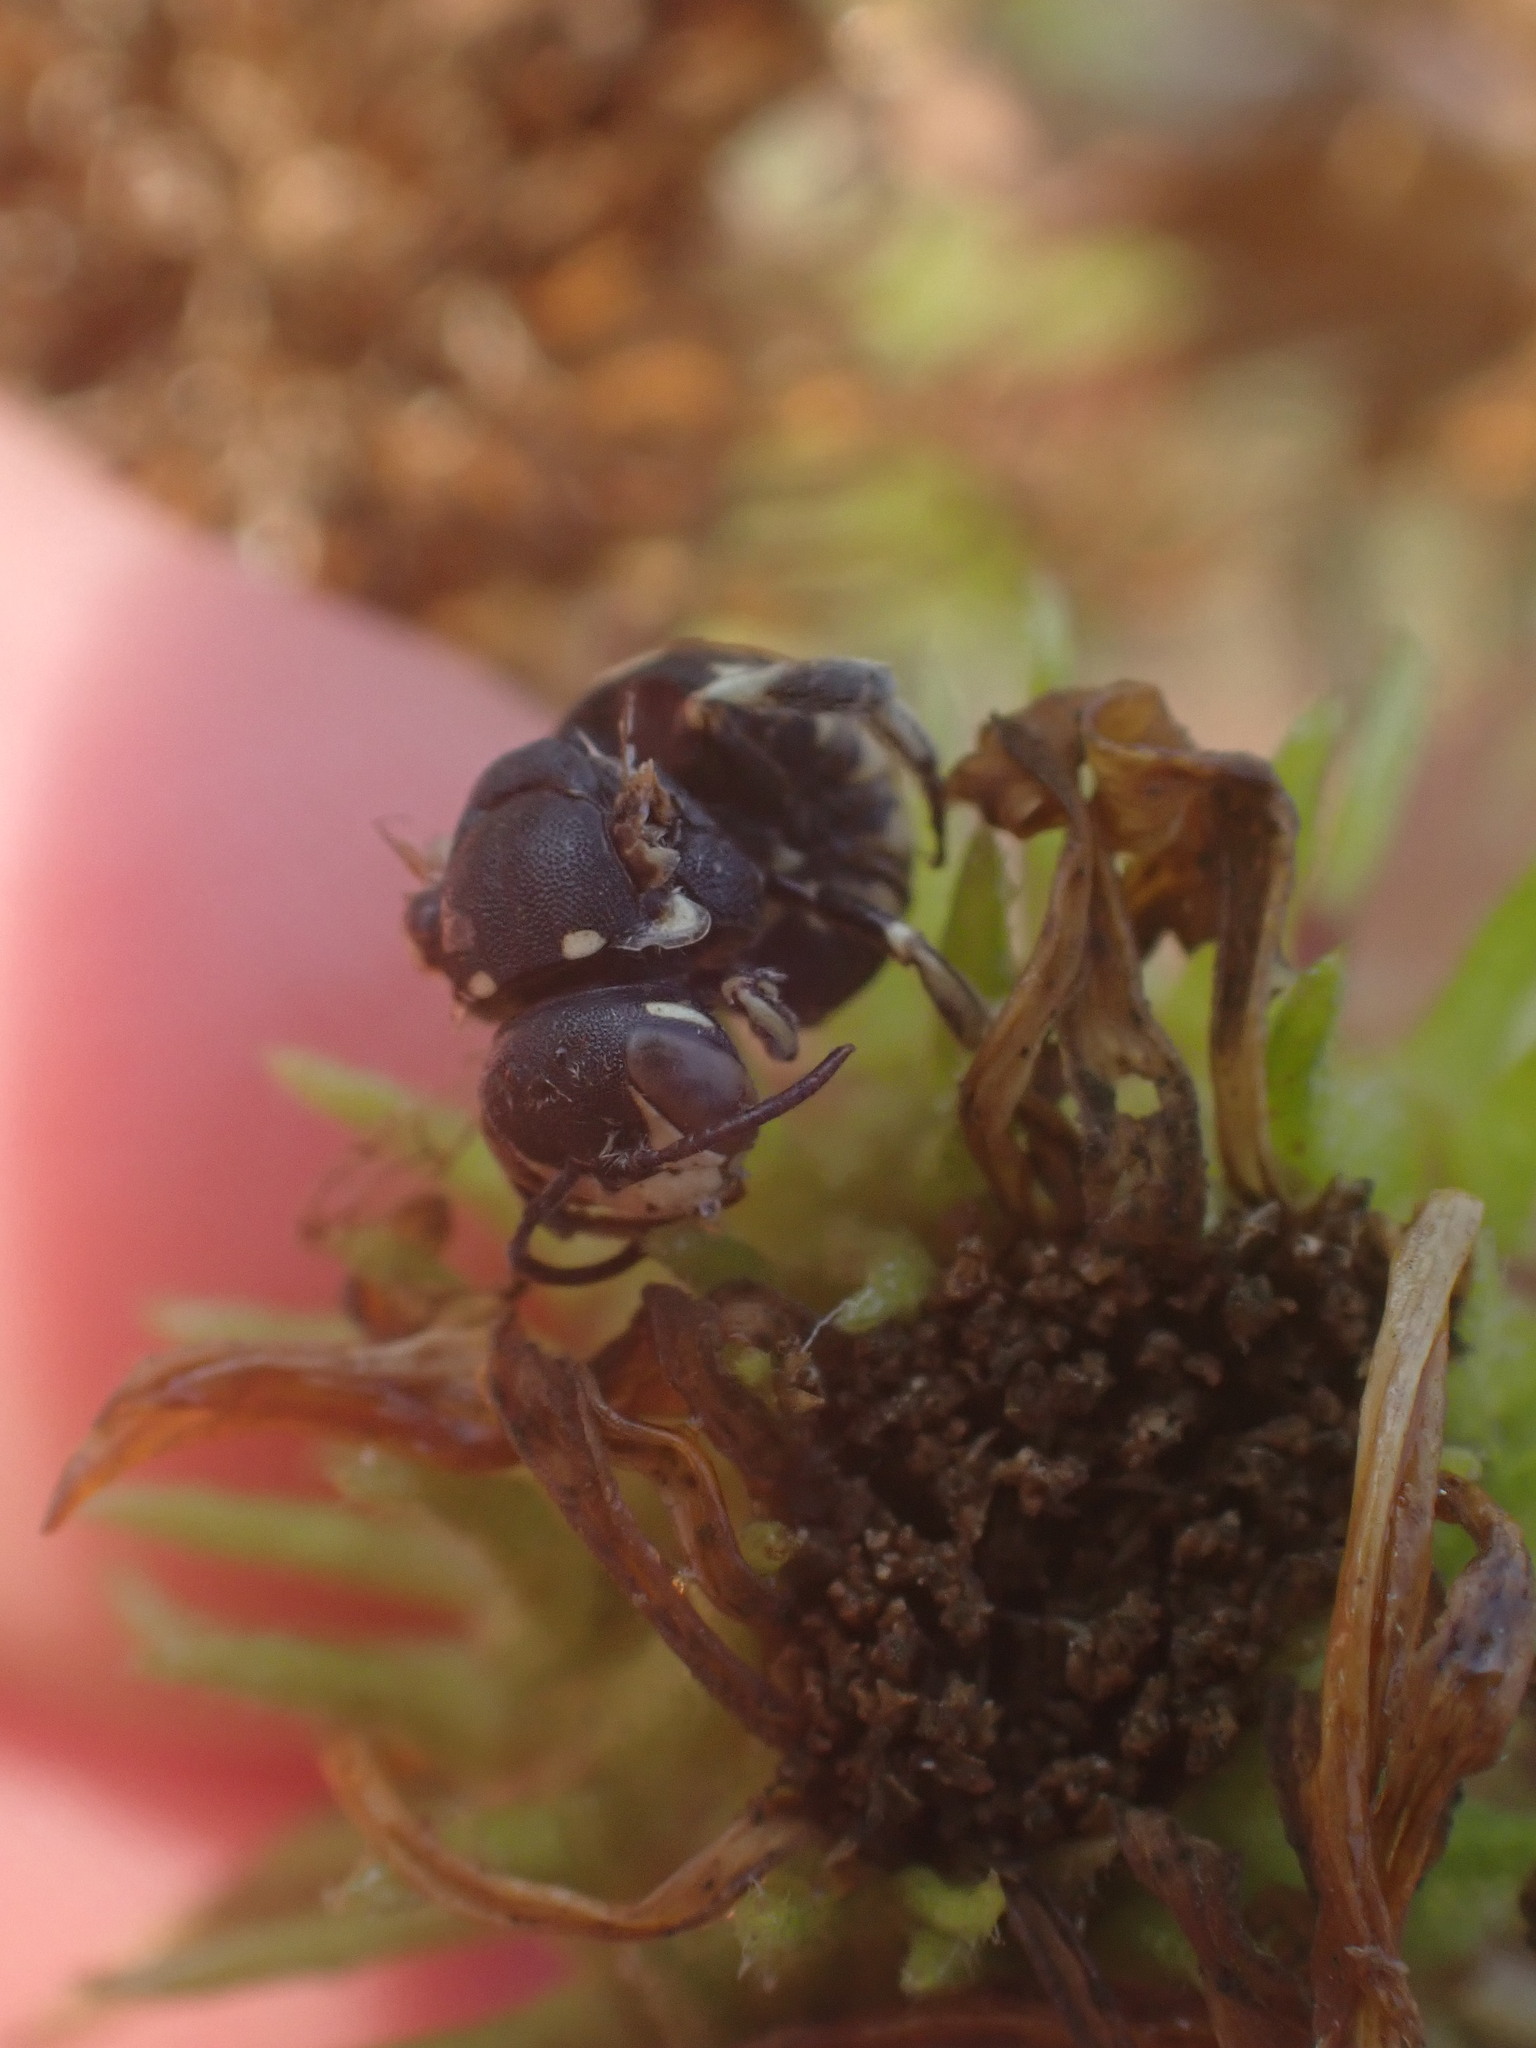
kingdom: Animalia
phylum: Arthropoda
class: Insecta
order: Hymenoptera
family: Megachilidae
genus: Dianthidium
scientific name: Dianthidium subparvum
